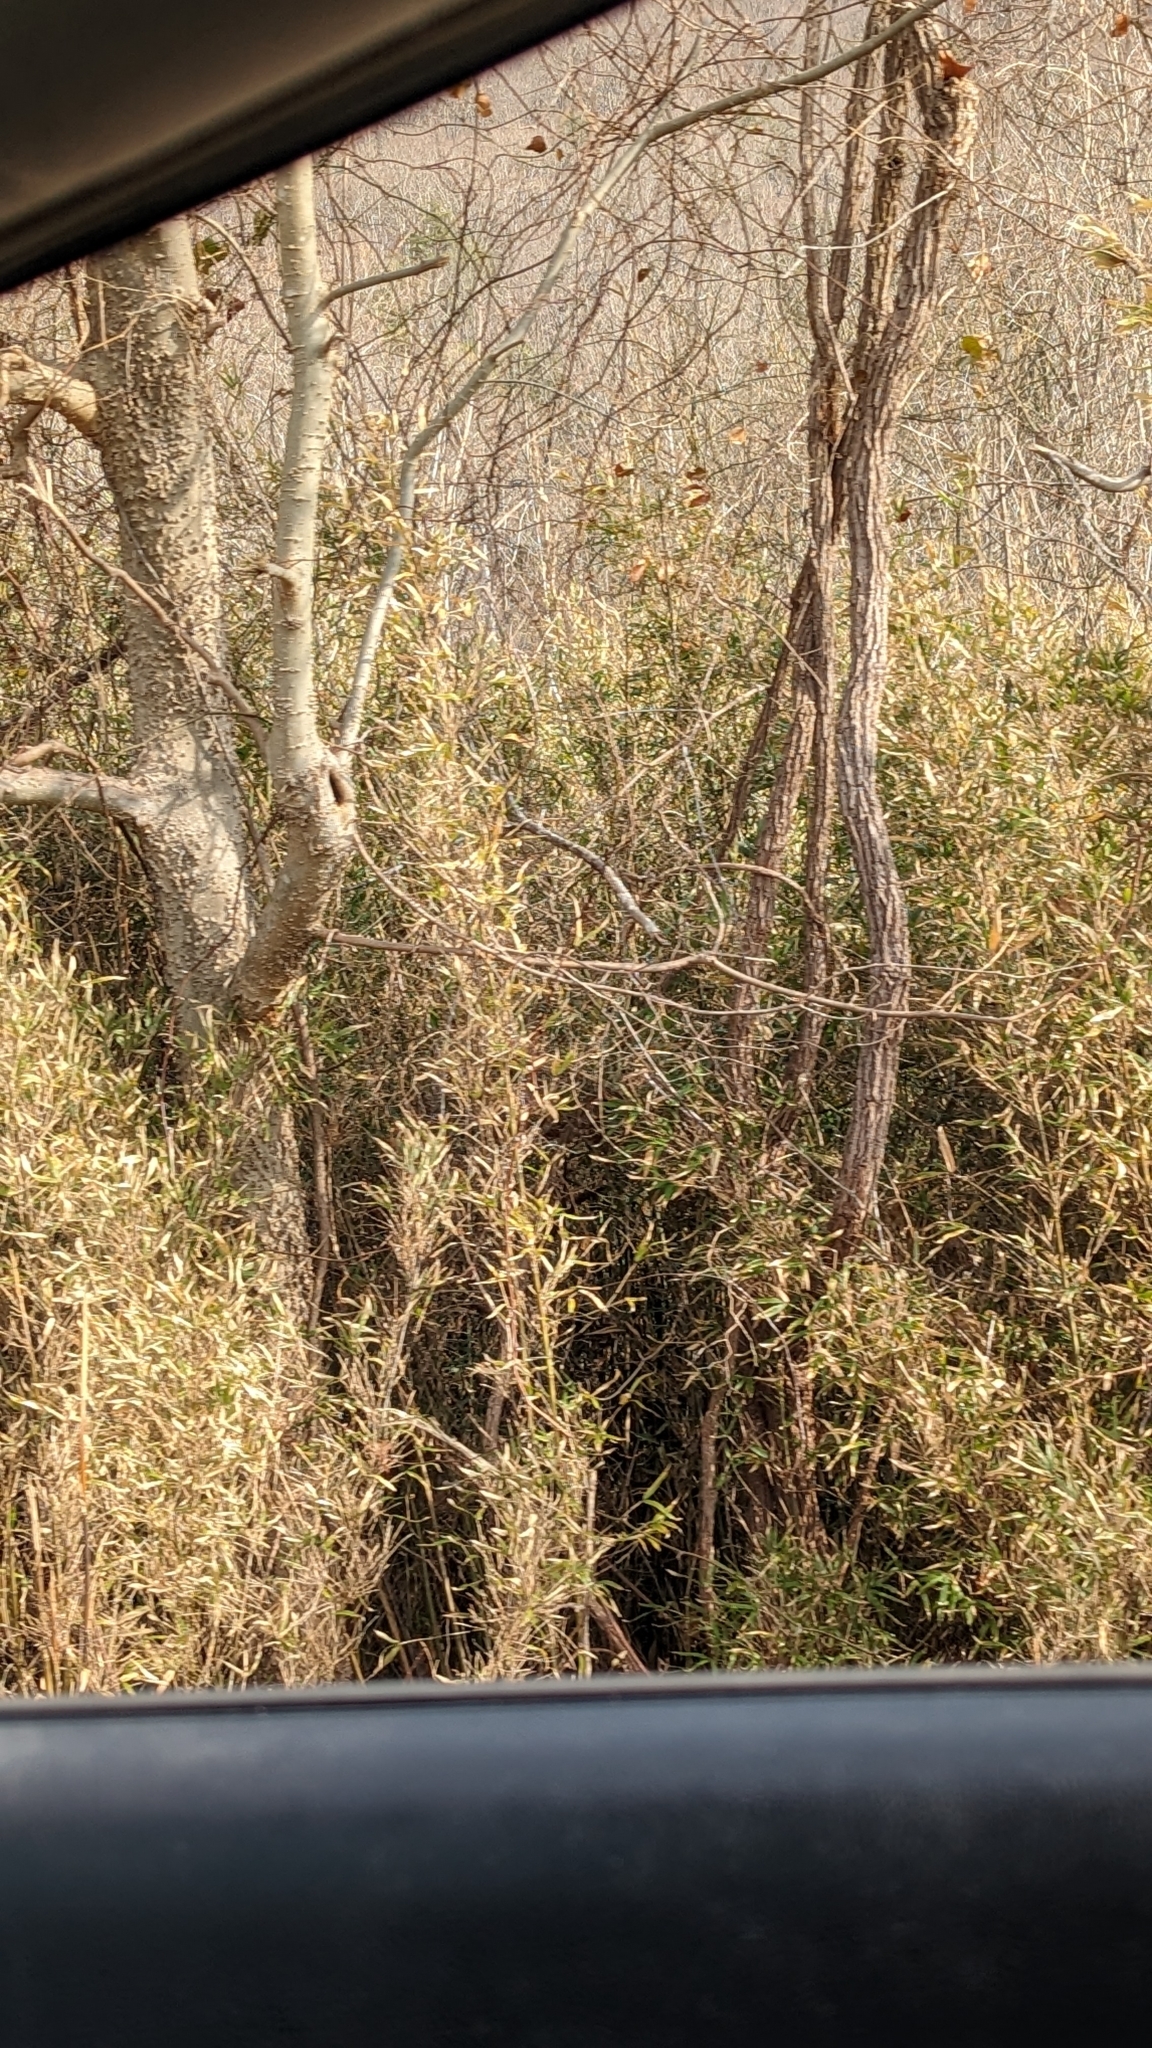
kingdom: Plantae
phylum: Tracheophyta
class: Liliopsida
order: Poales
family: Poaceae
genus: Arundinaria
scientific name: Arundinaria gigantea
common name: Giant cane
